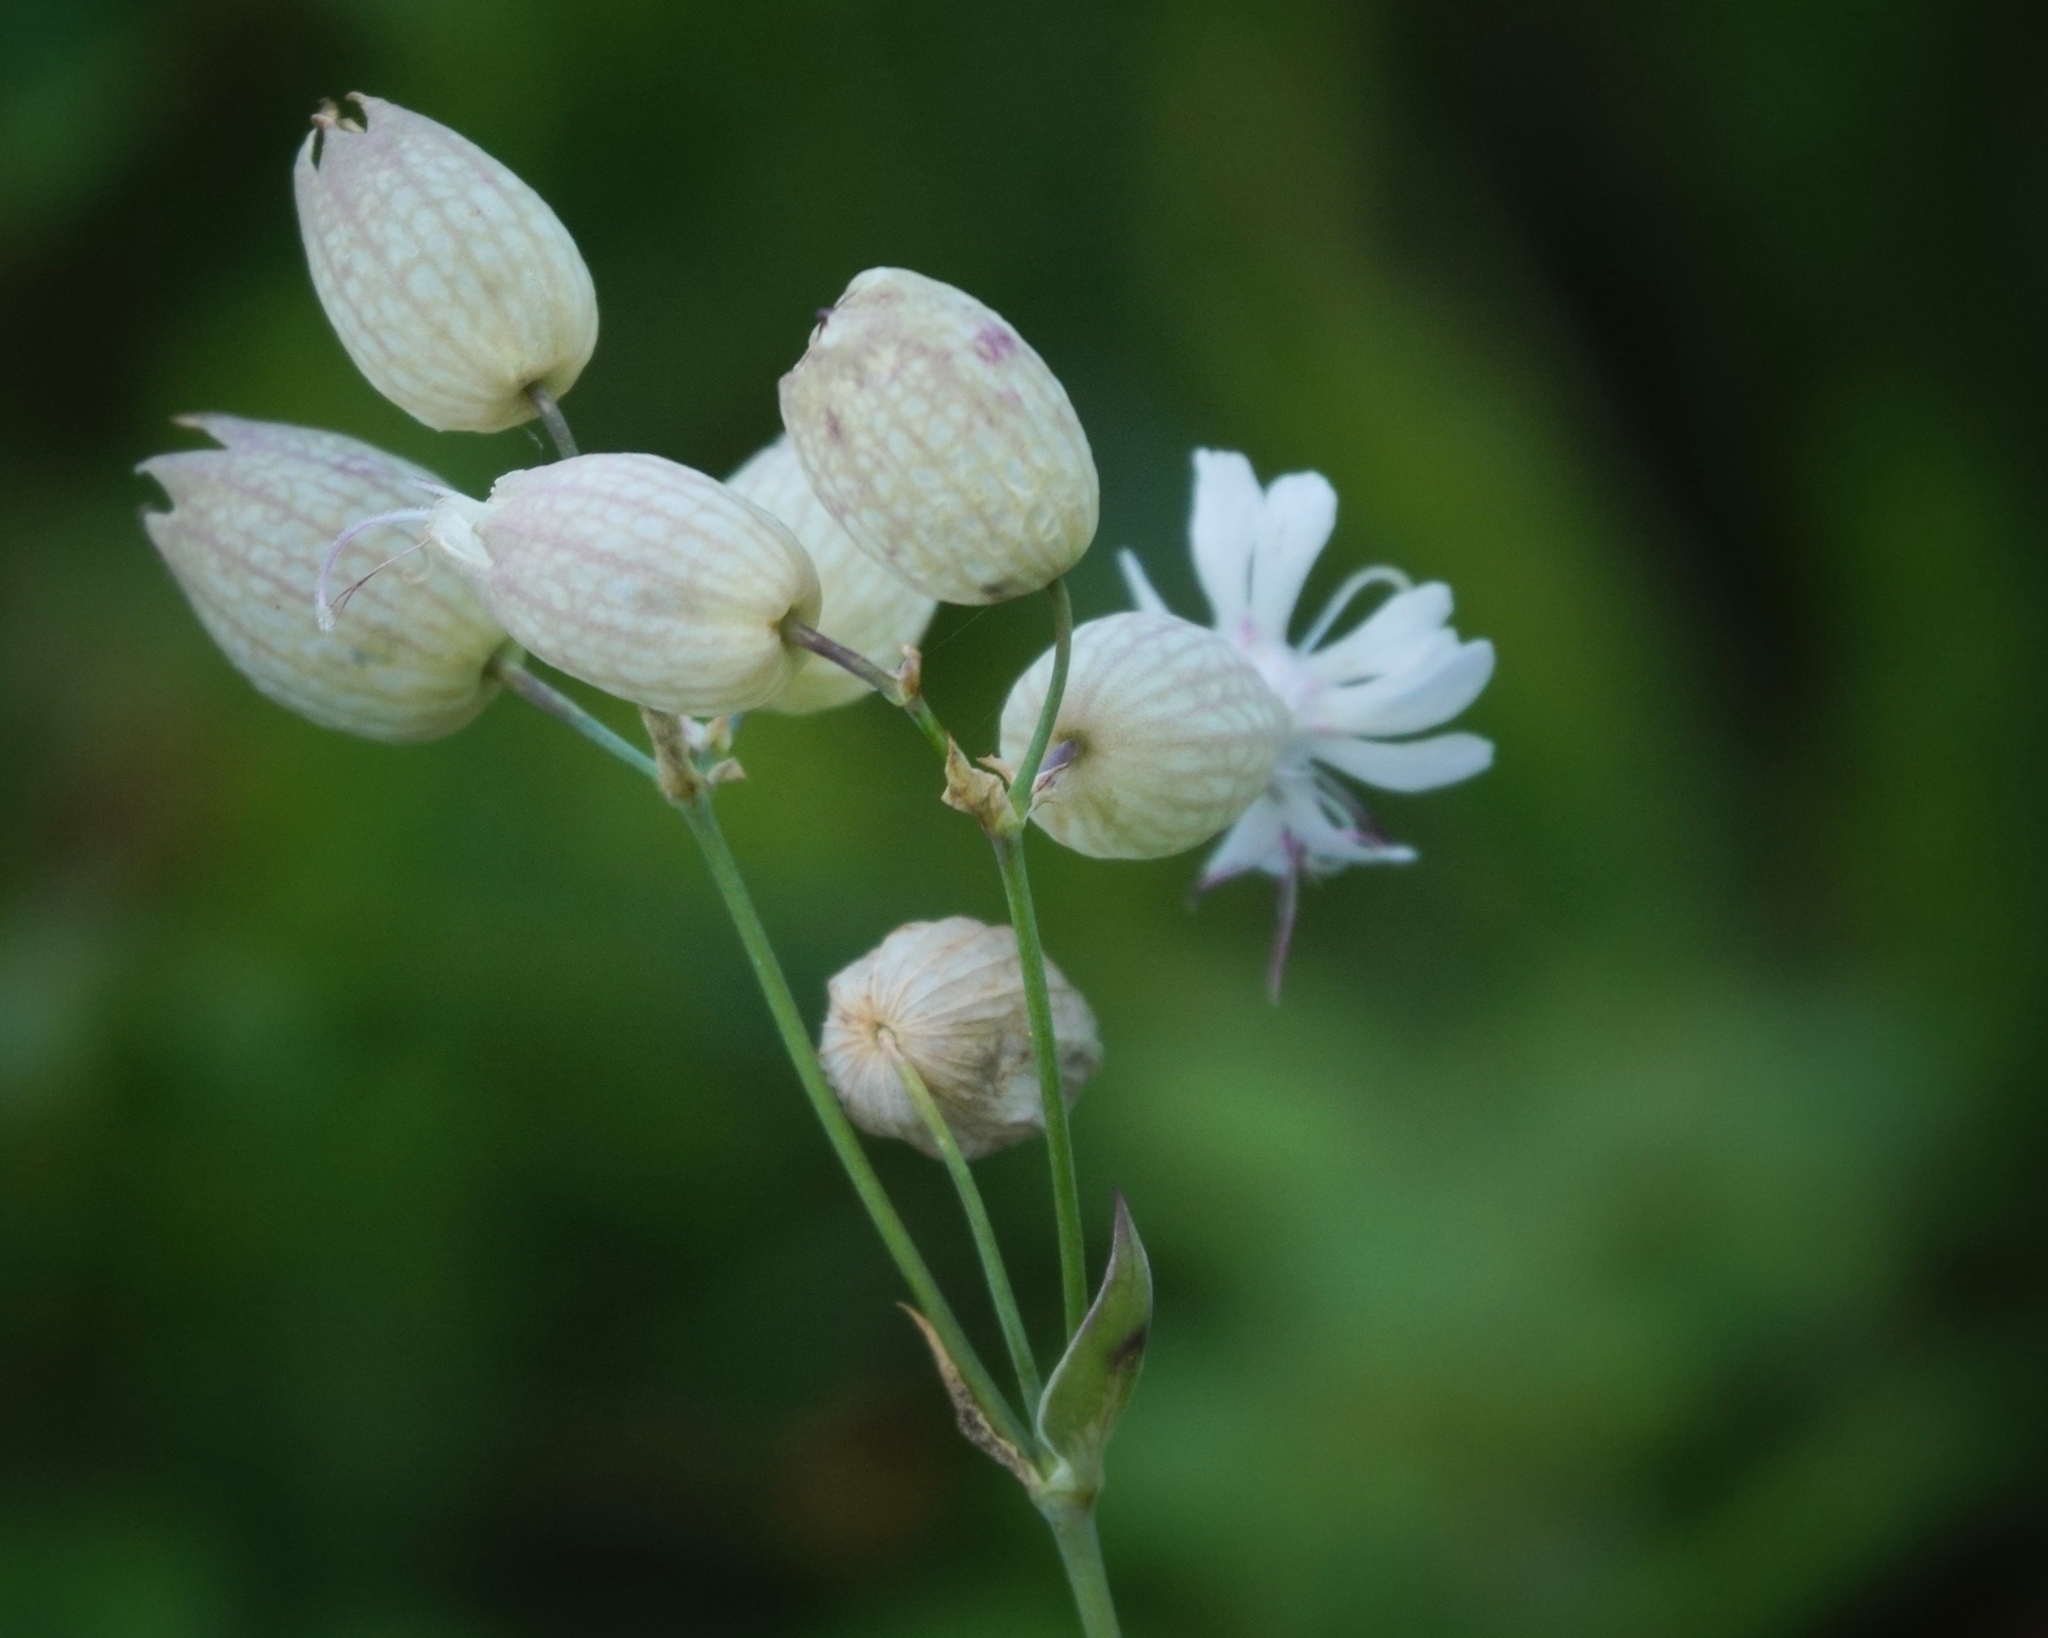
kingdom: Plantae
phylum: Tracheophyta
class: Magnoliopsida
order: Caryophyllales
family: Caryophyllaceae
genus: Silene
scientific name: Silene vulgaris
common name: Bladder campion
